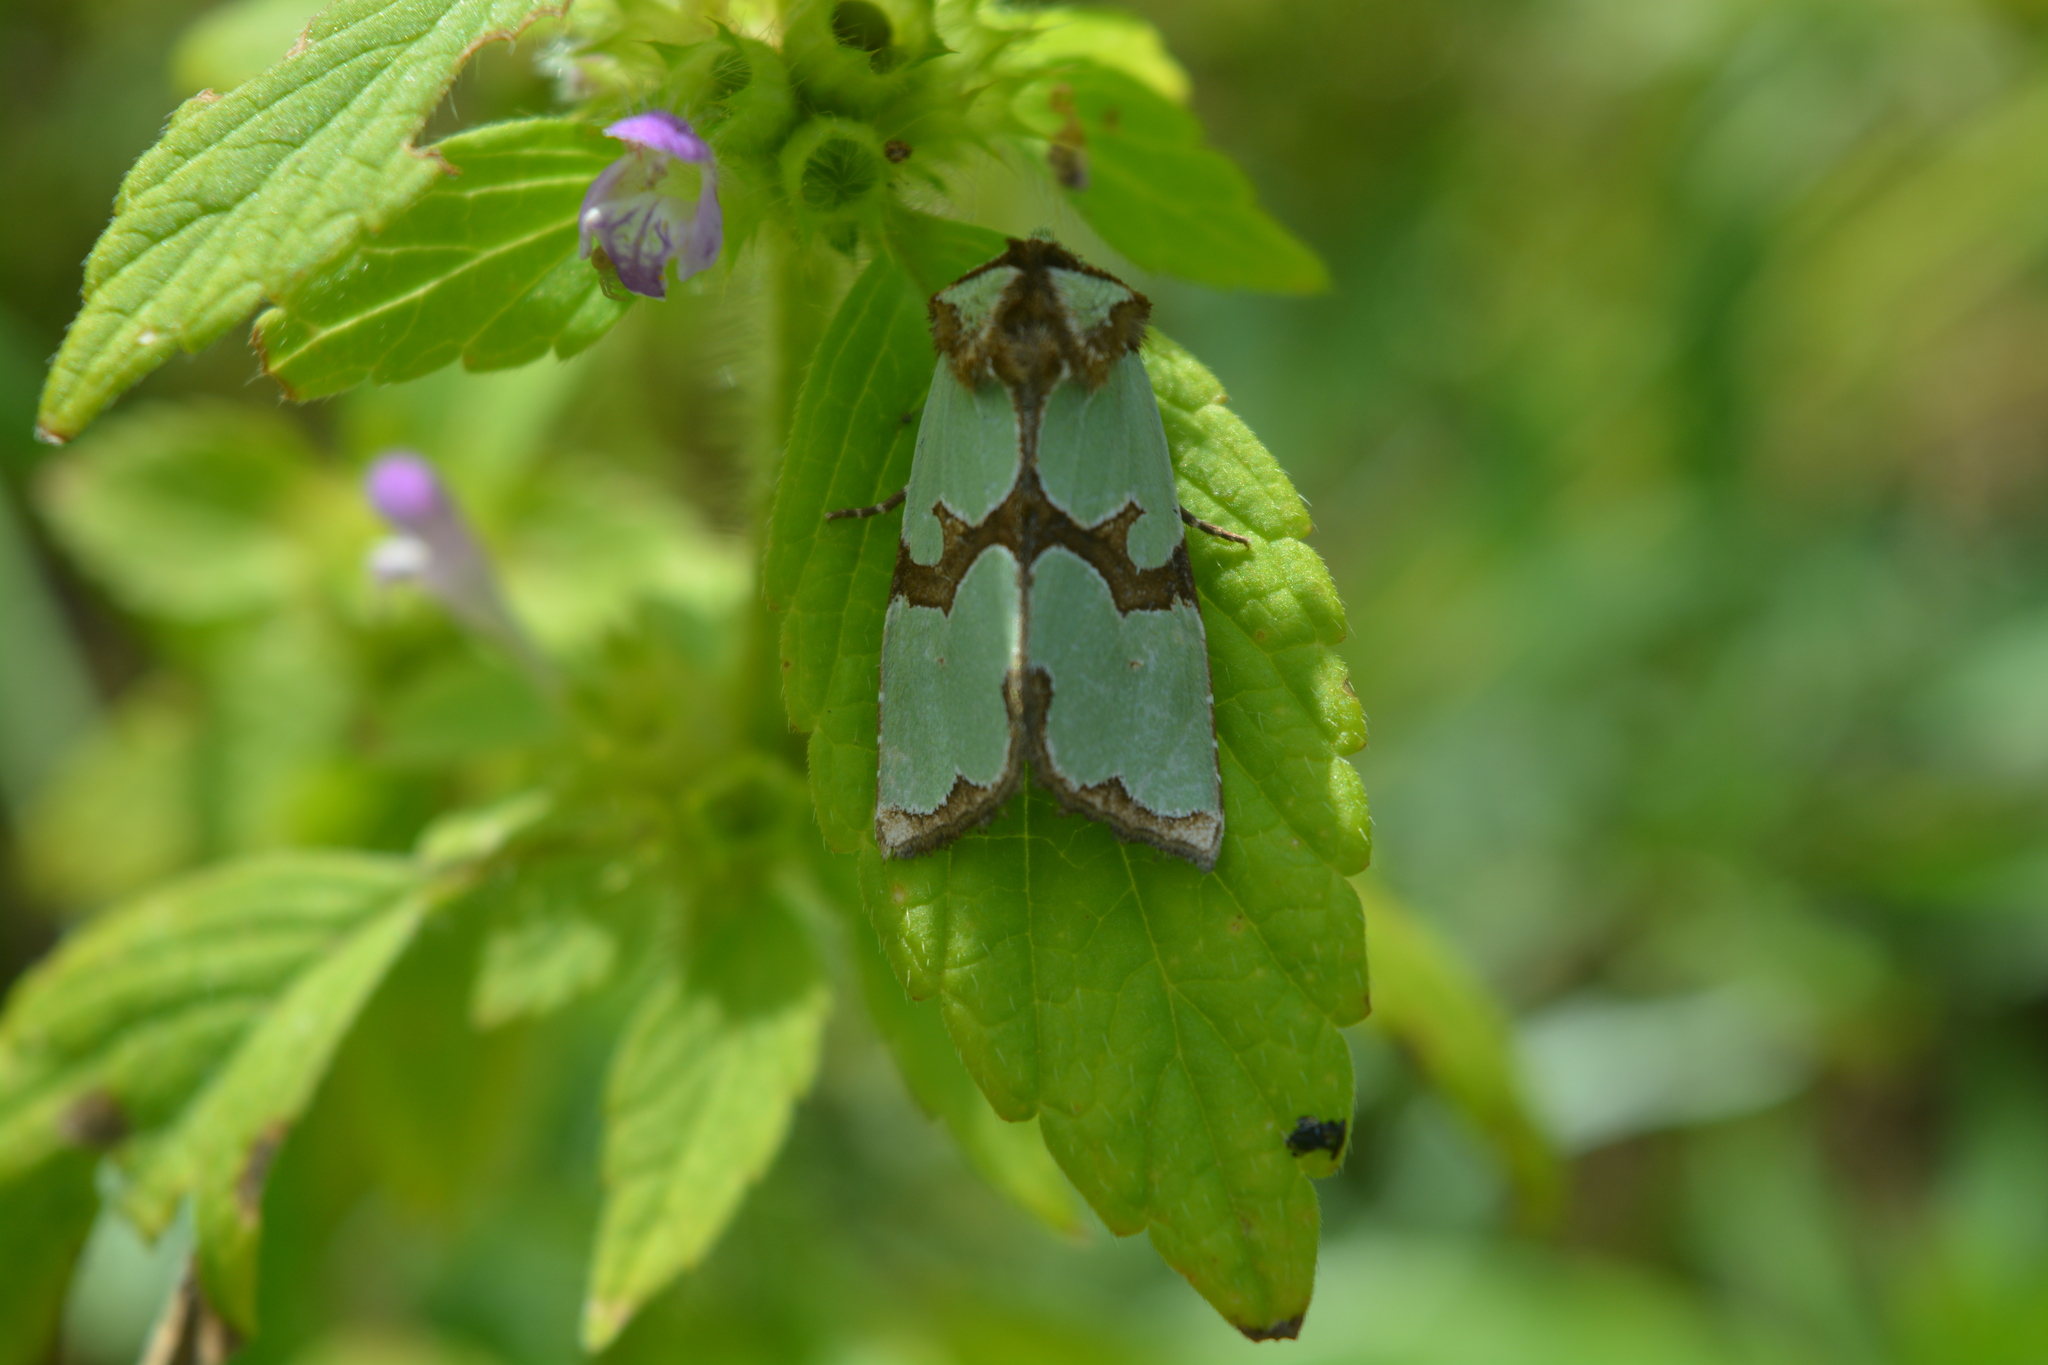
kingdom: Animalia
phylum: Arthropoda
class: Insecta
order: Lepidoptera
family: Noctuidae
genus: Staurophora
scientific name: Staurophora celsia
